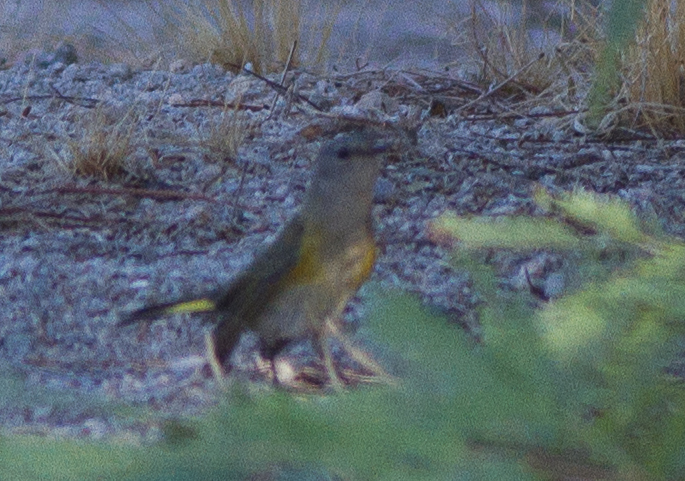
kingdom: Animalia
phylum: Chordata
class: Aves
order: Passeriformes
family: Parulidae
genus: Setophaga
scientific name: Setophaga ruticilla
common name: American redstart
